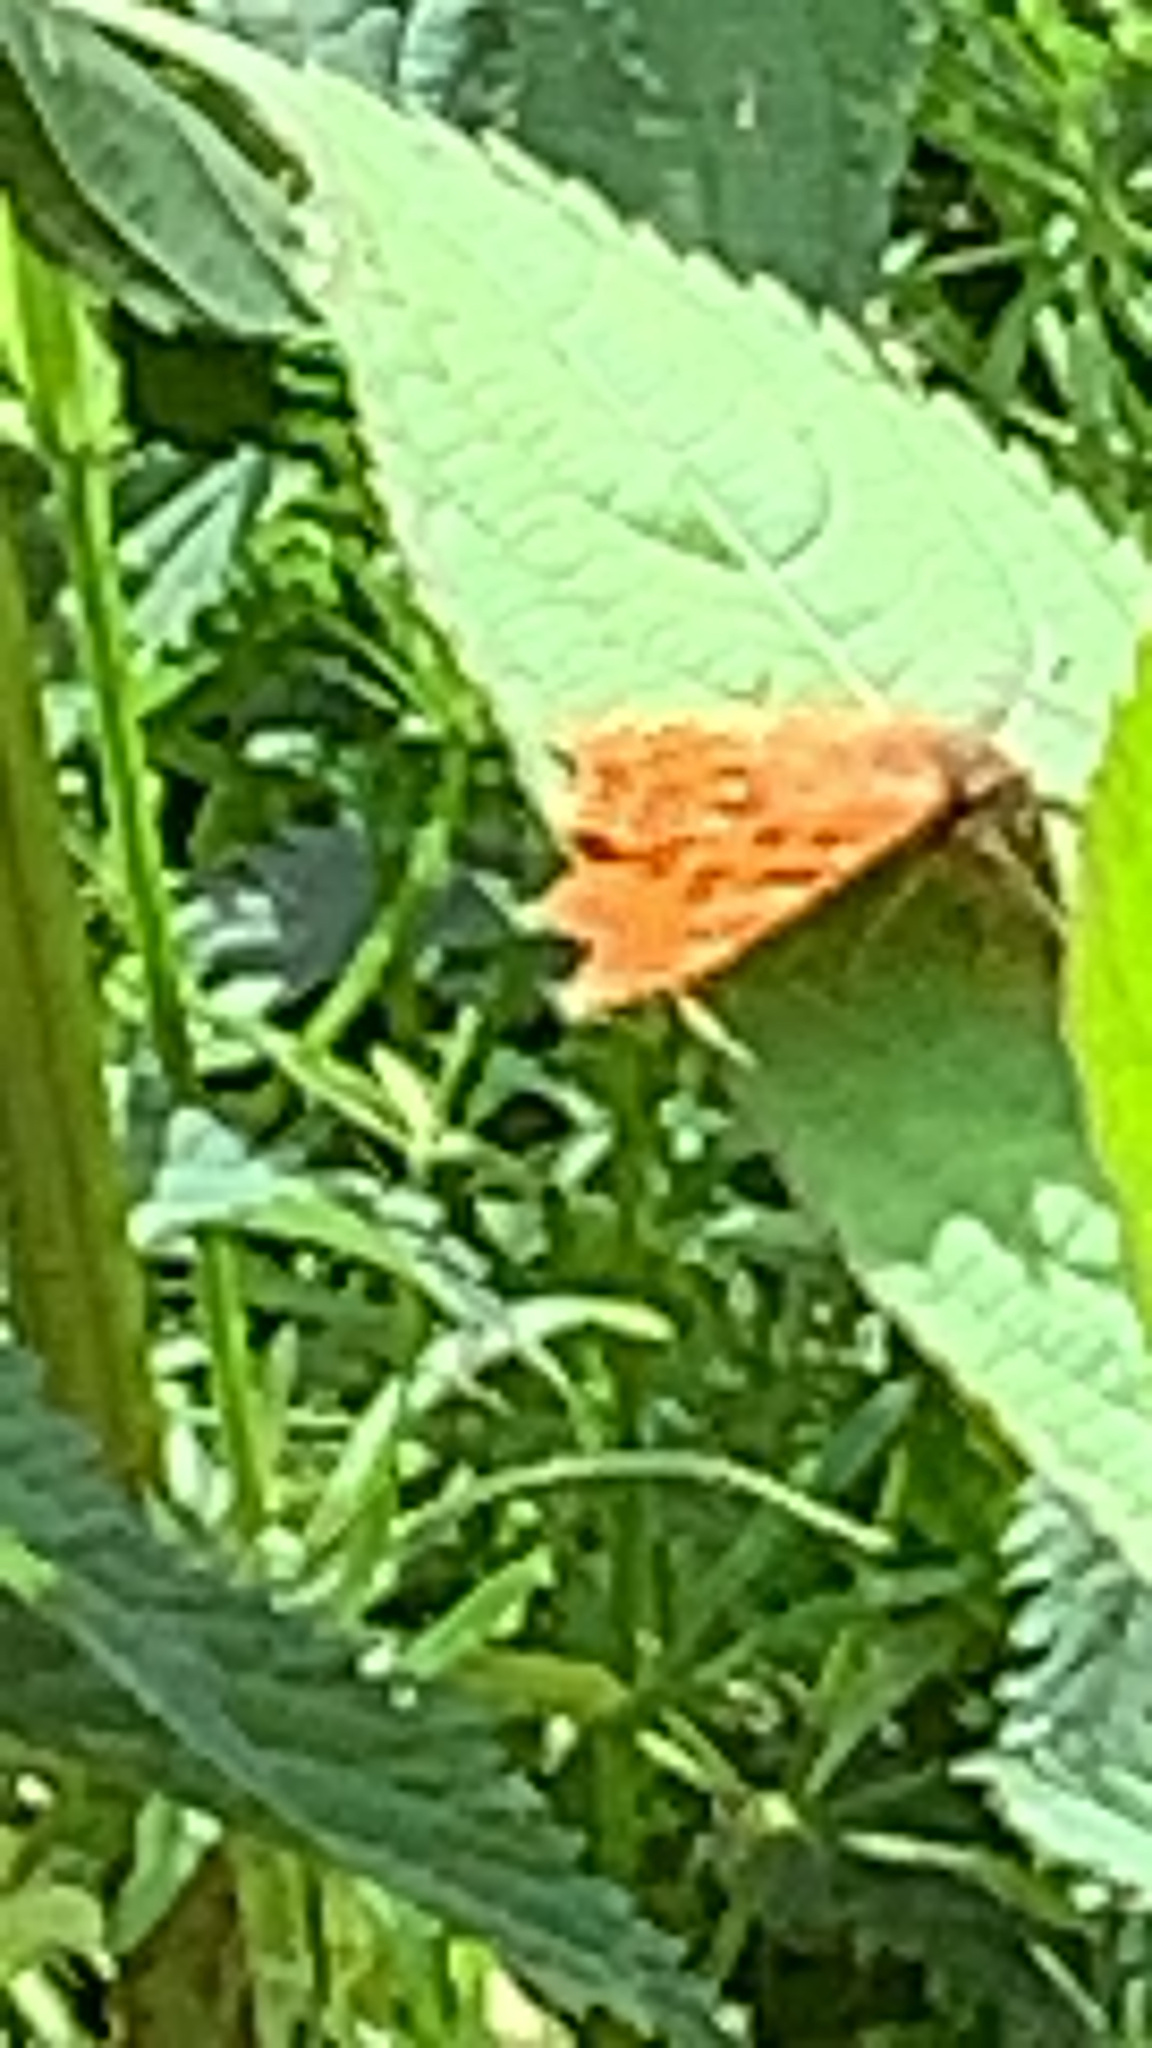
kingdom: Animalia
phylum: Arthropoda
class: Insecta
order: Lepidoptera
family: Nymphalidae
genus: Polygonia
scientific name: Polygonia c-album
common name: Comma
